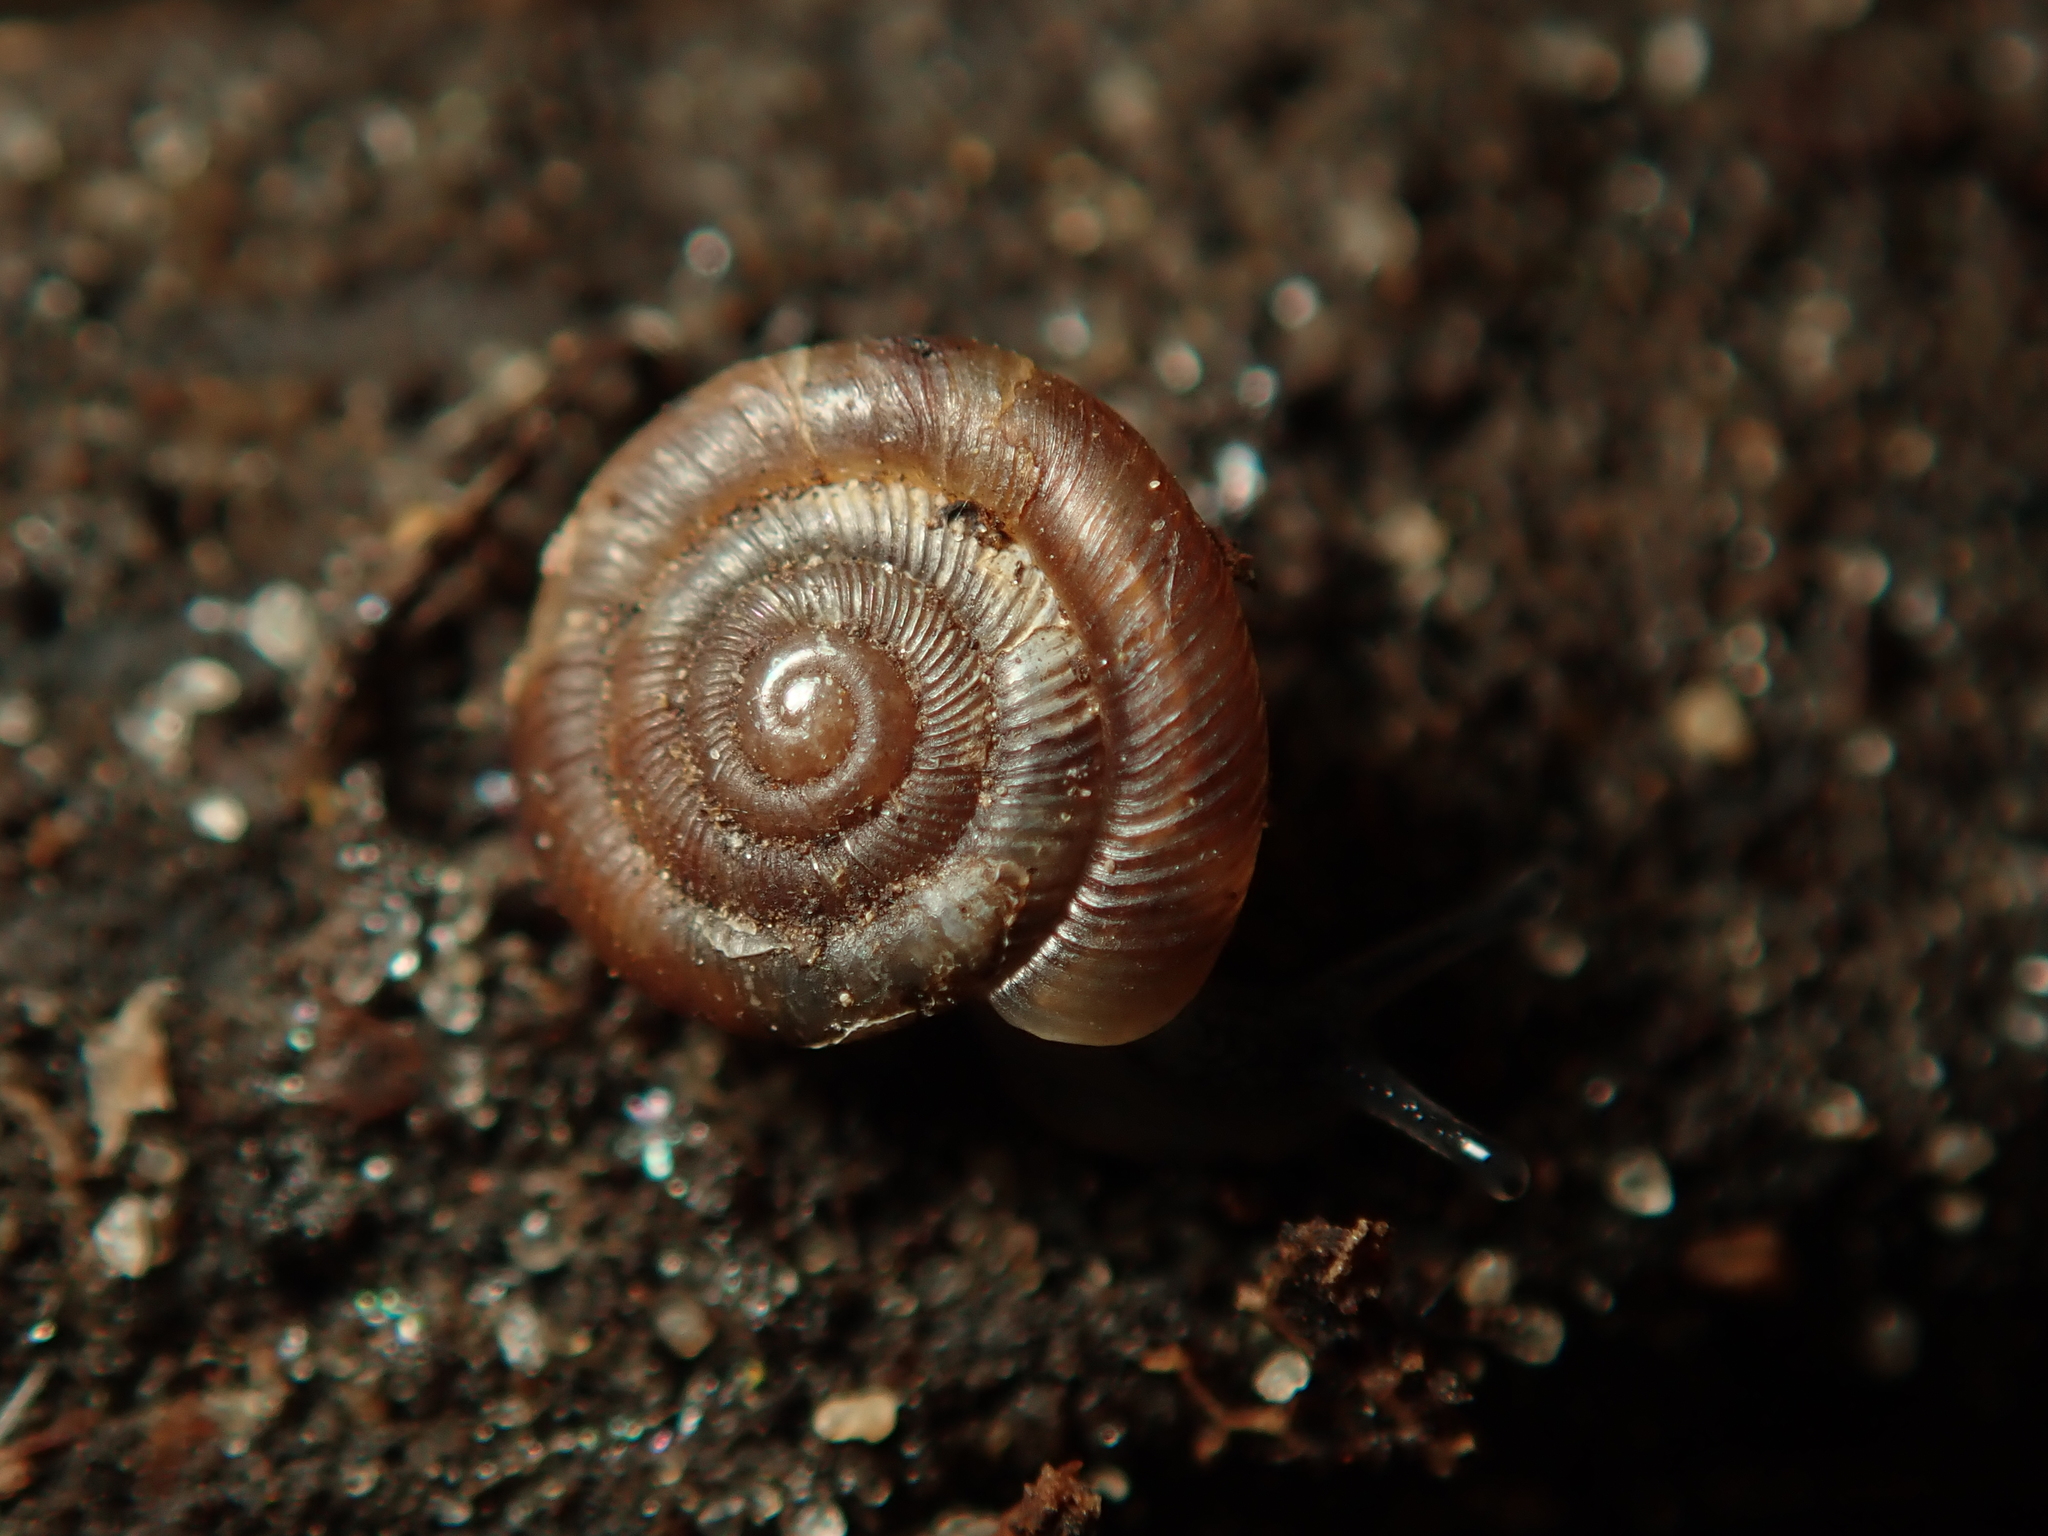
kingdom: Animalia
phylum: Mollusca
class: Gastropoda
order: Stylommatophora
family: Discidae
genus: Discus
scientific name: Discus rotundatus
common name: Rounded snail
